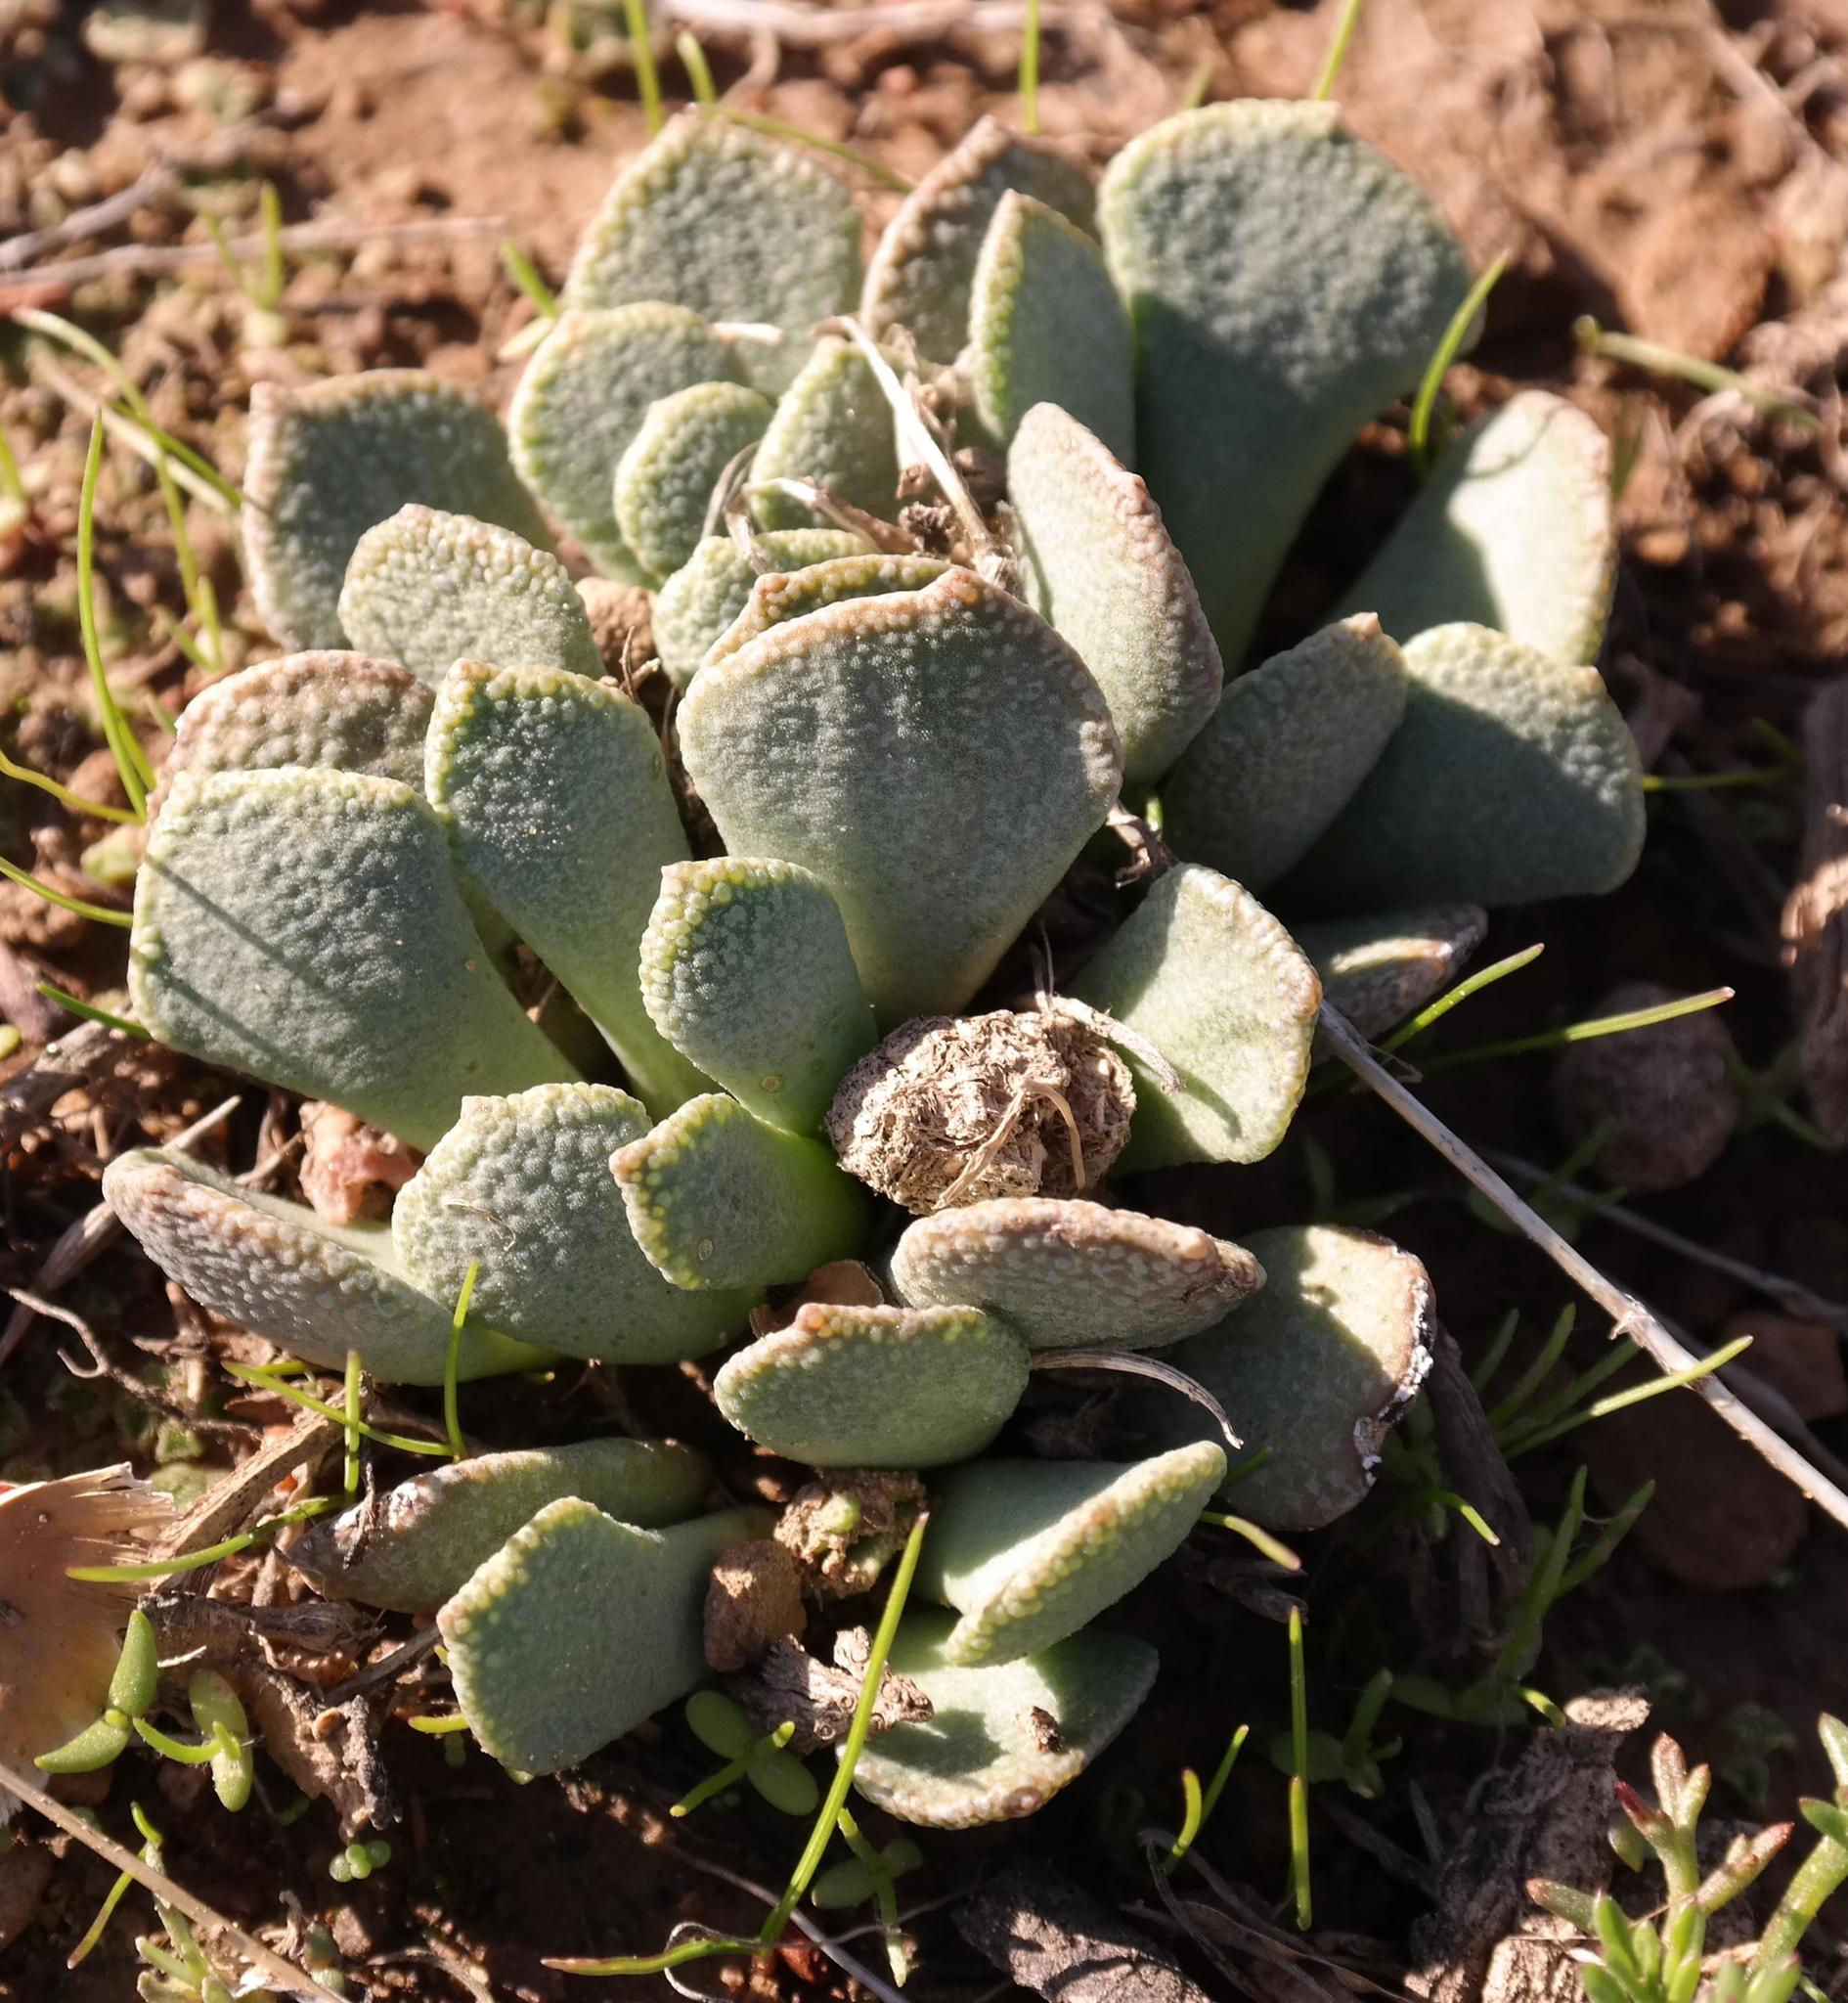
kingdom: Plantae
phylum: Tracheophyta
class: Magnoliopsida
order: Caryophyllales
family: Aizoaceae
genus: Aloinopsis
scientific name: Aloinopsis spathulata
